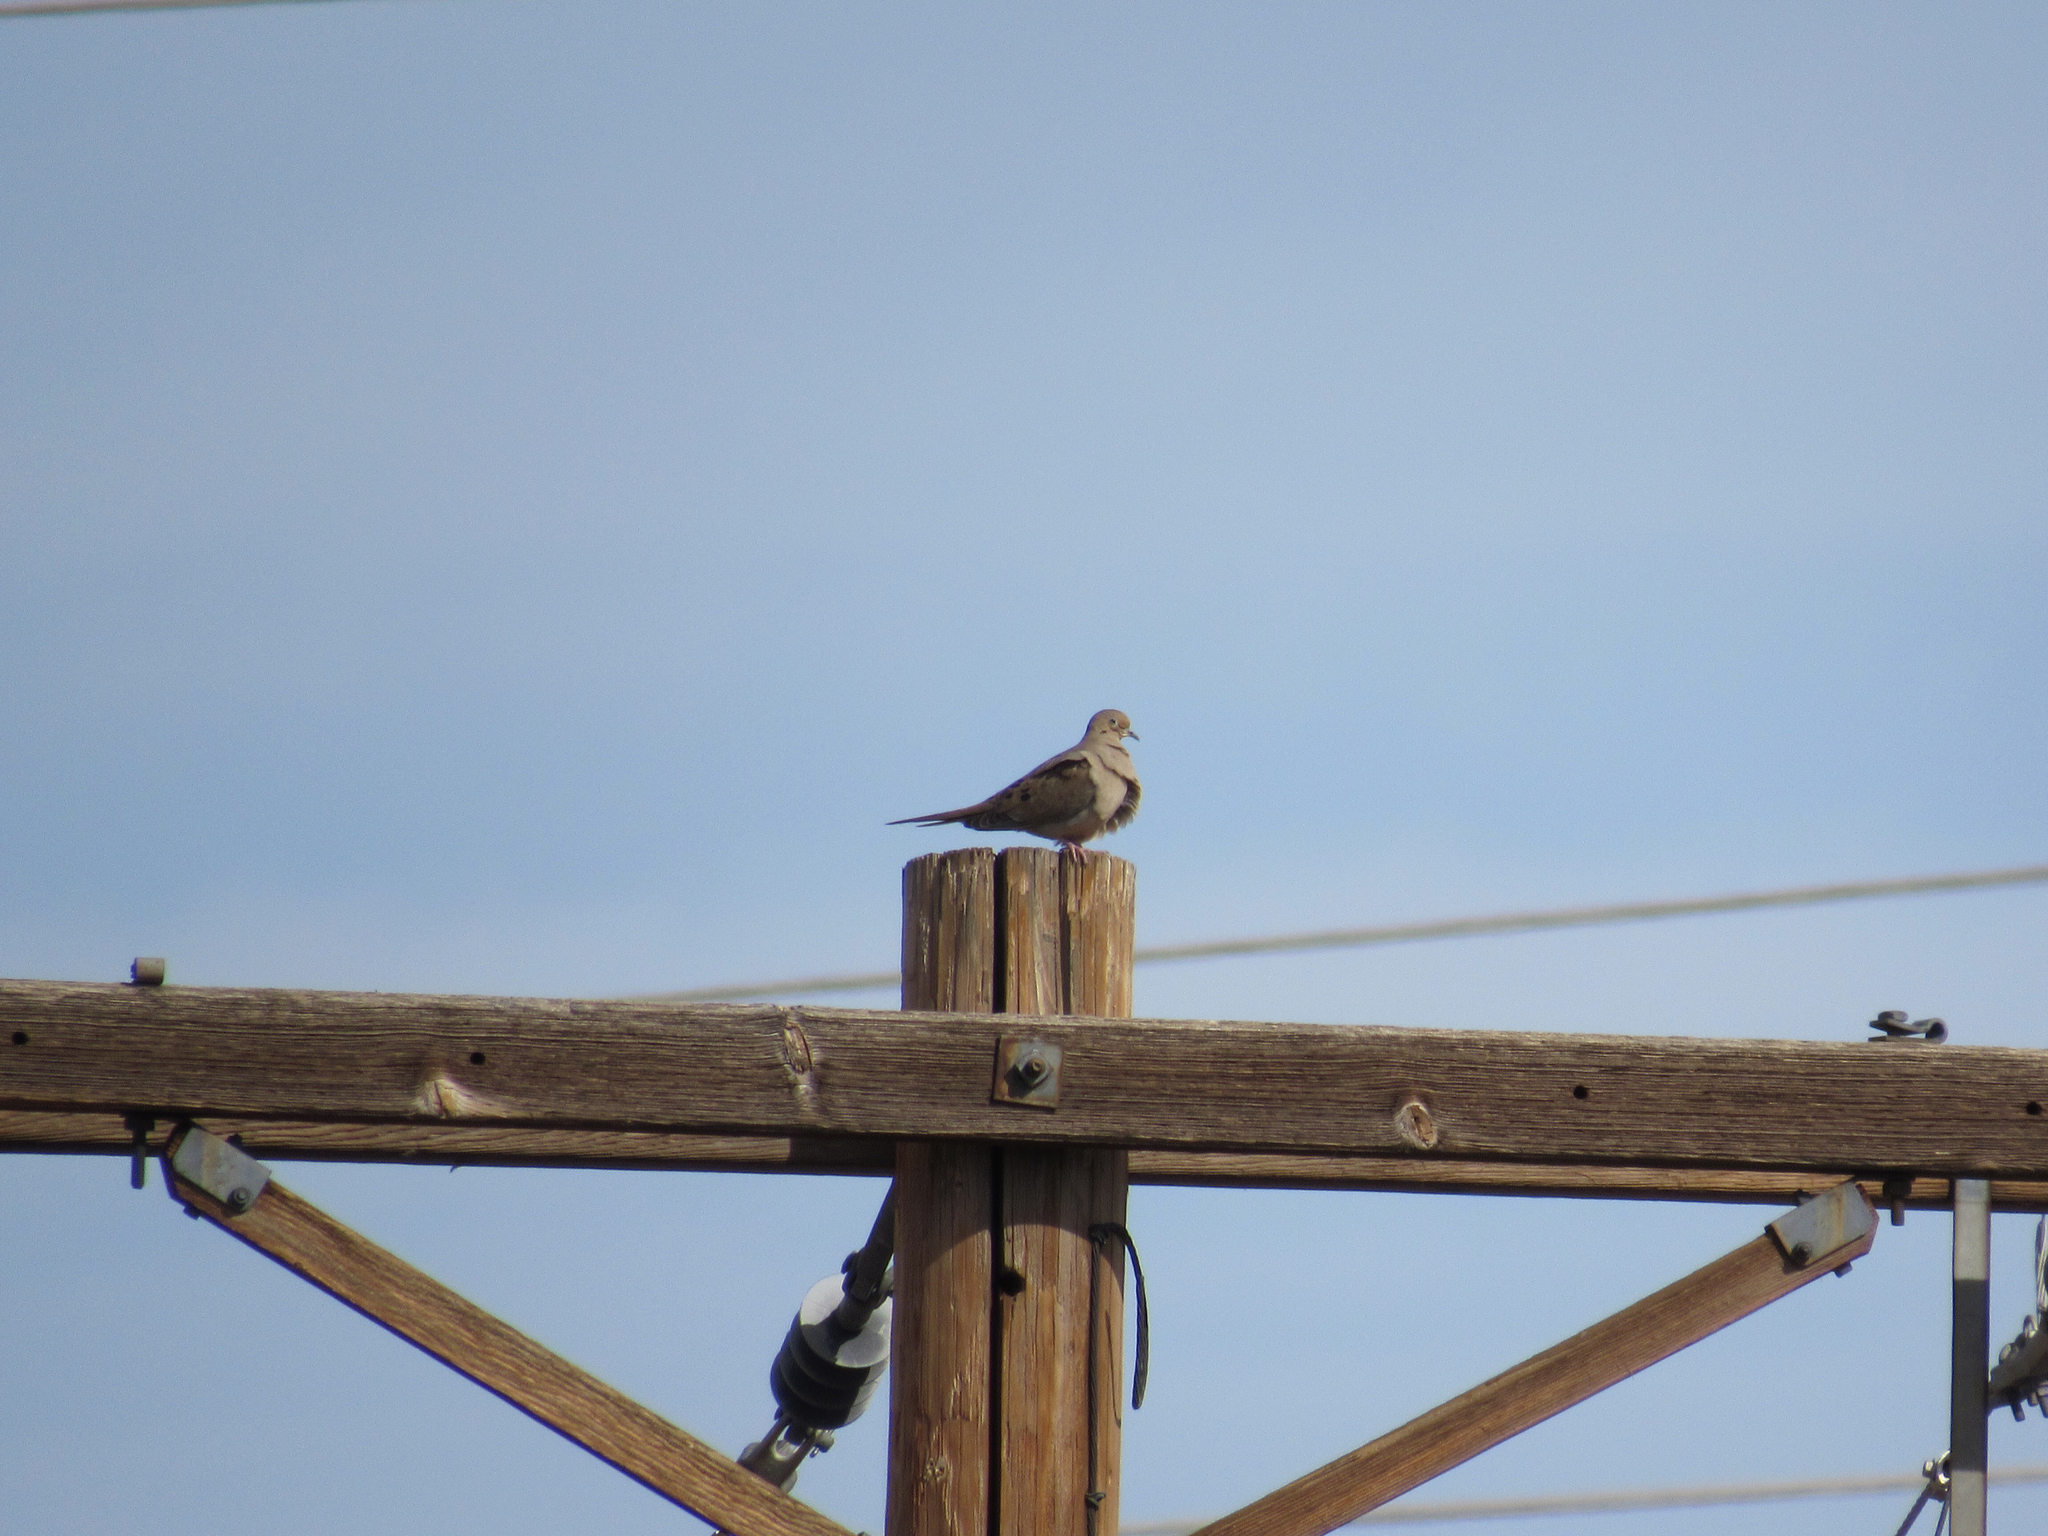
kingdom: Animalia
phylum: Chordata
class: Aves
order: Columbiformes
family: Columbidae
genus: Zenaida
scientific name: Zenaida macroura
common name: Mourning dove
